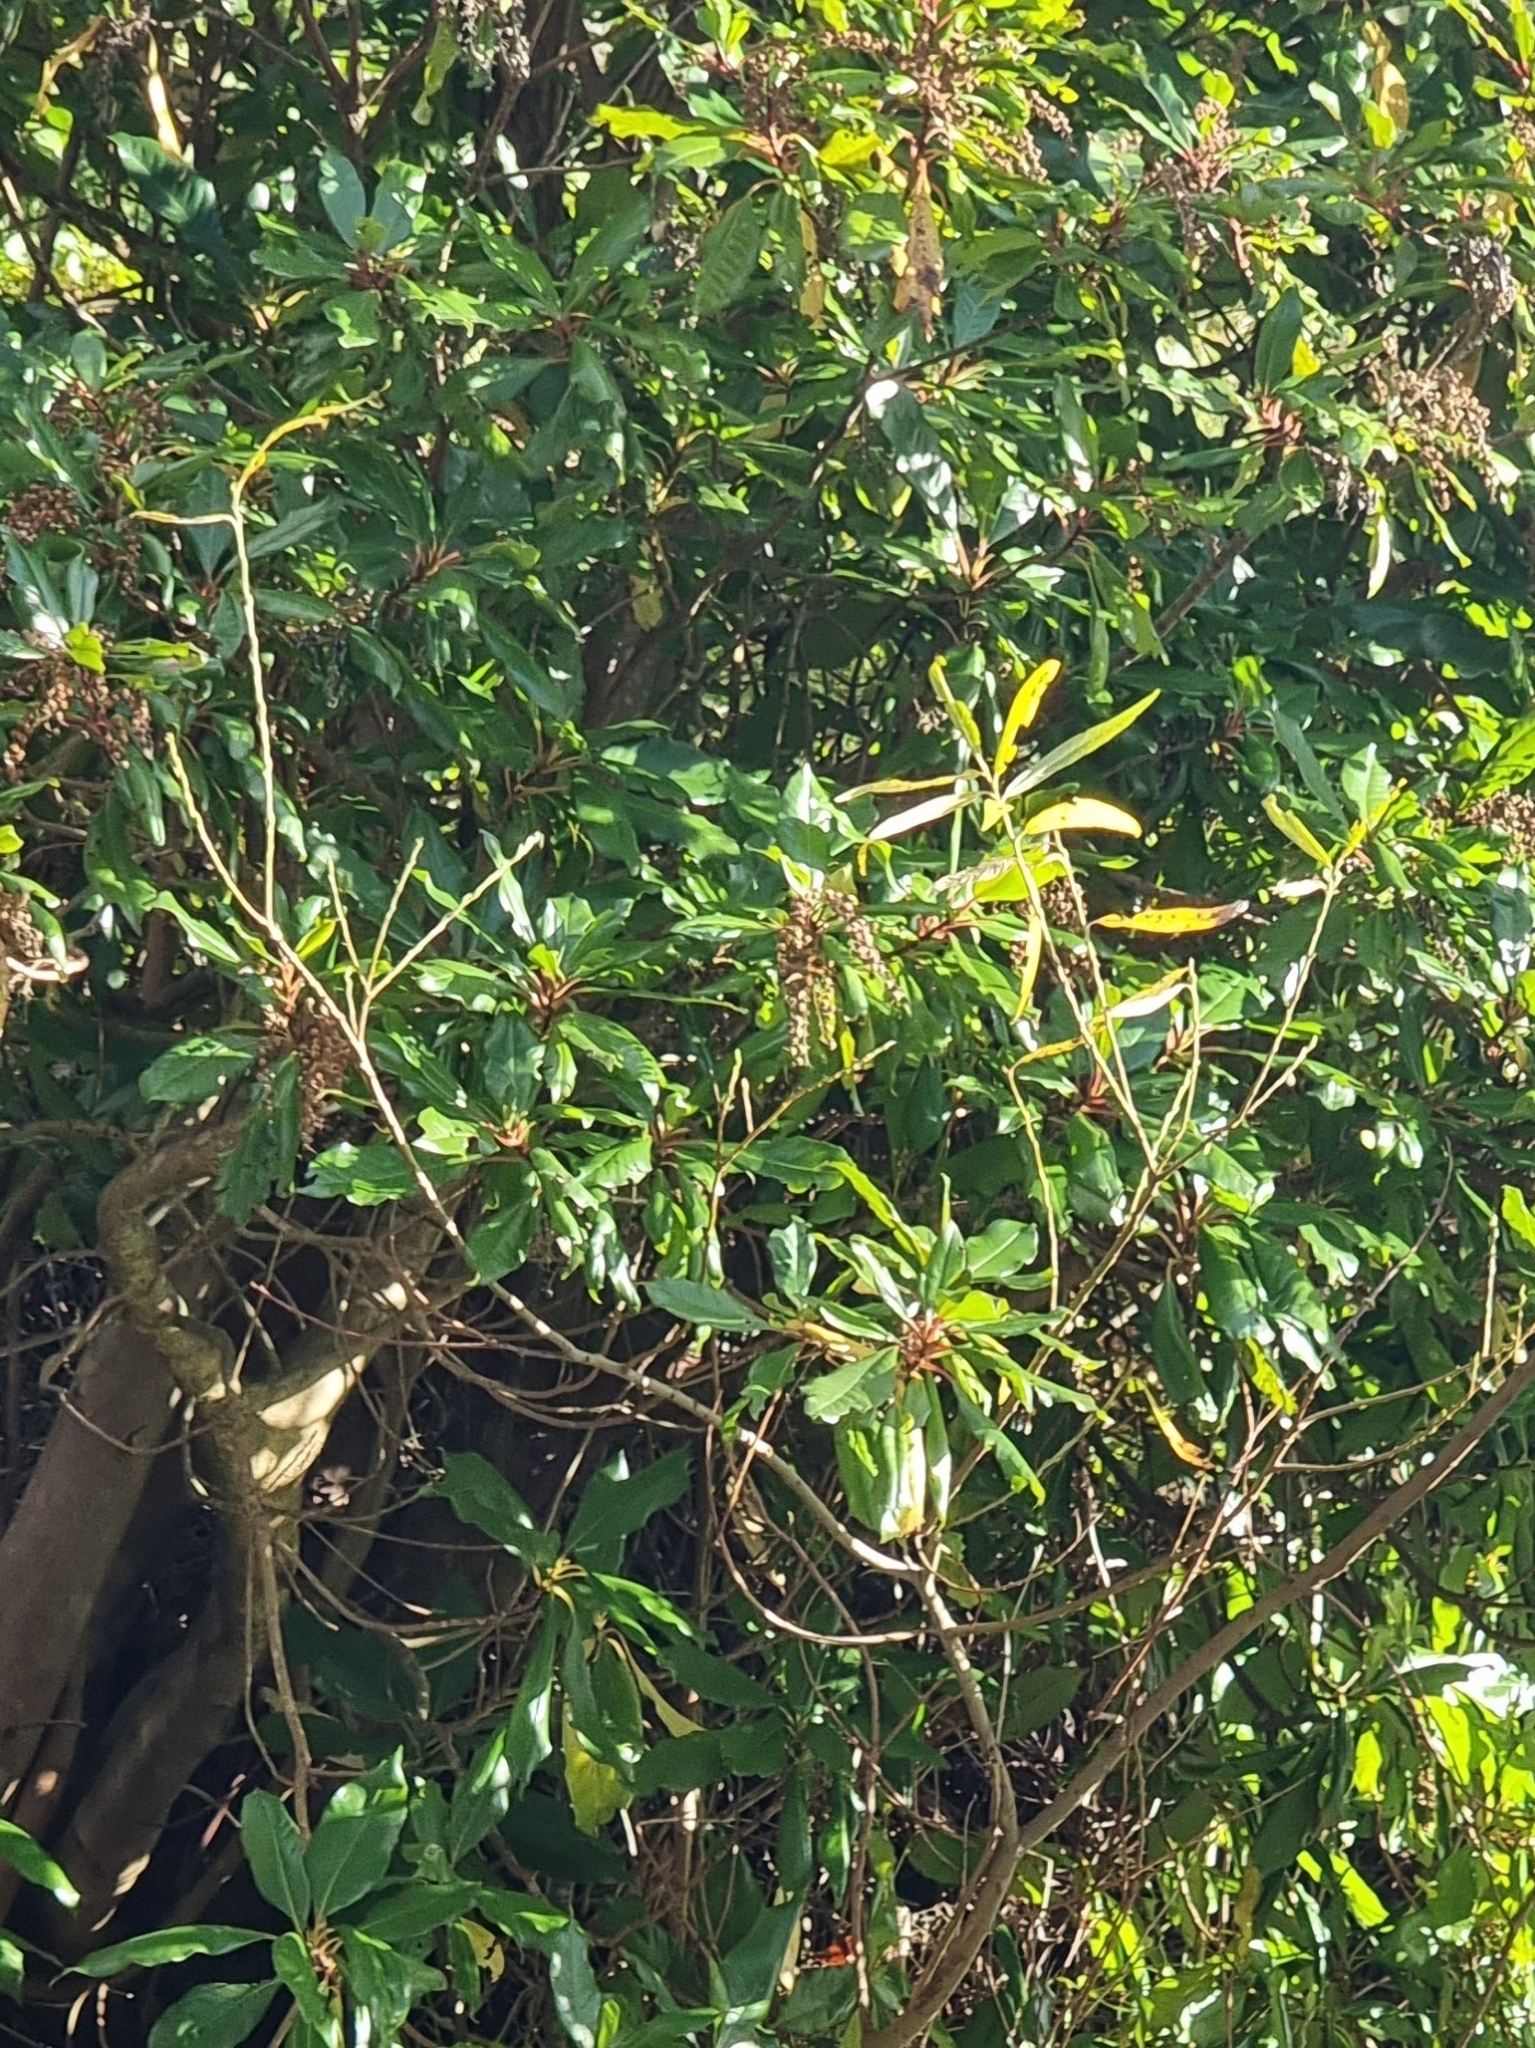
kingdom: Plantae
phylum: Tracheophyta
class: Magnoliopsida
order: Ericales
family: Clethraceae
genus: Clethra
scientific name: Clethra arborea
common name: Lily-of-the-valley-tree
